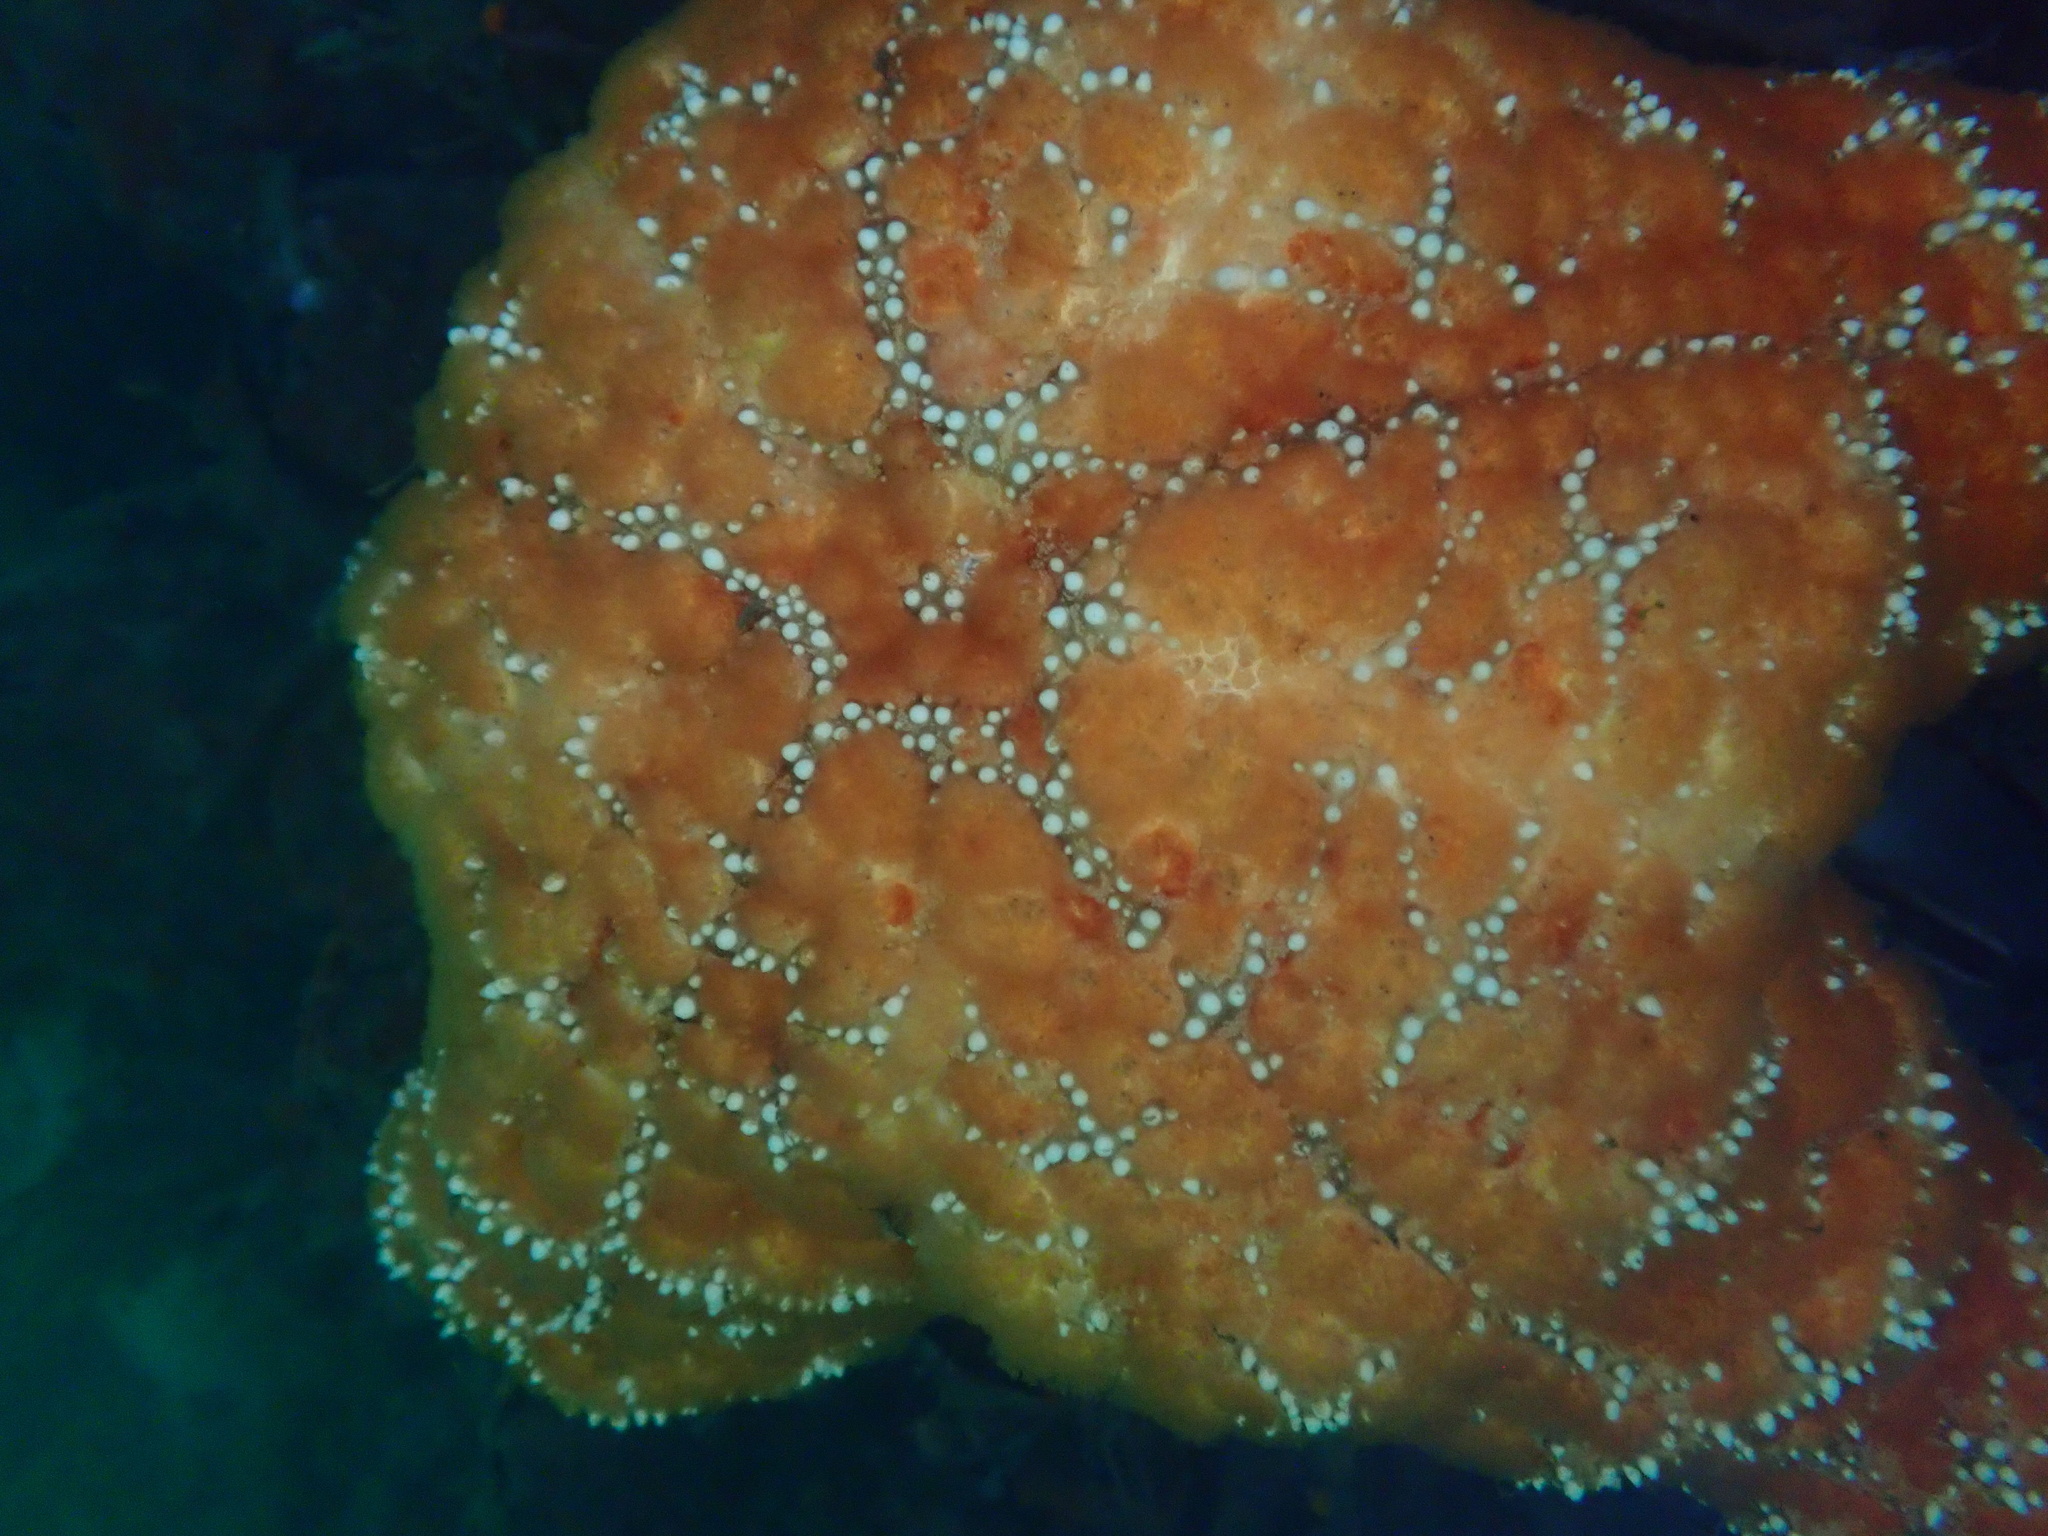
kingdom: Animalia
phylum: Echinodermata
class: Asteroidea
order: Forcipulatida
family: Asteriidae
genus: Pisaster
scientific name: Pisaster ochraceus
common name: Ochre stars
